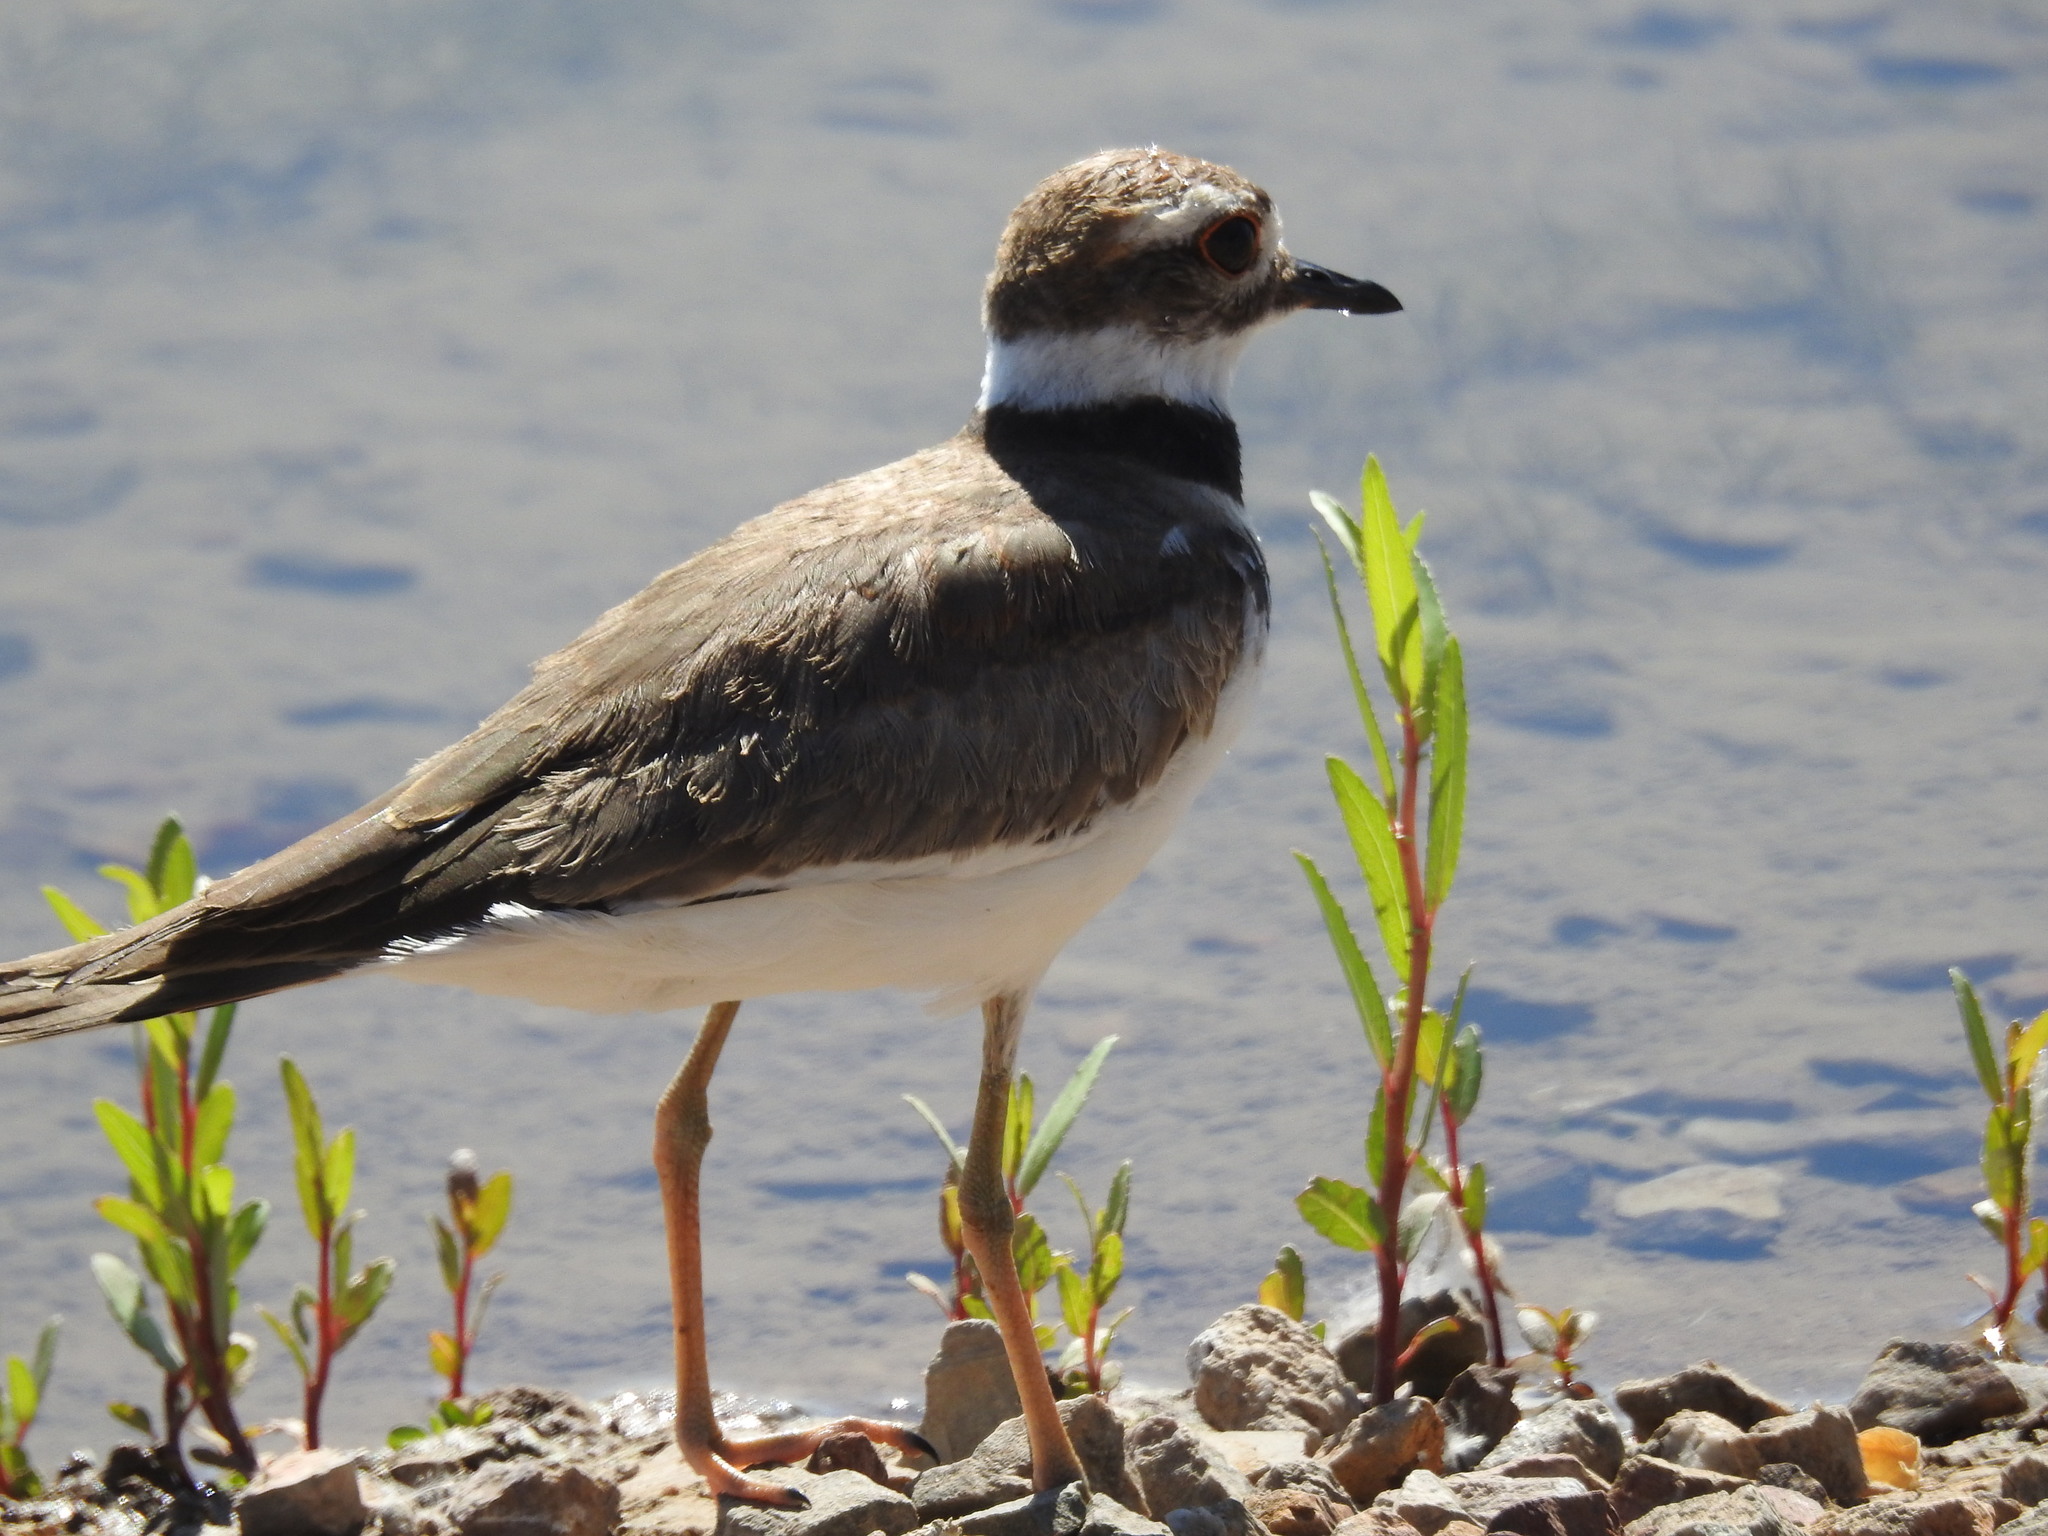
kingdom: Animalia
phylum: Chordata
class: Aves
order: Charadriiformes
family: Charadriidae
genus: Charadrius
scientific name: Charadrius vociferus
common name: Killdeer
